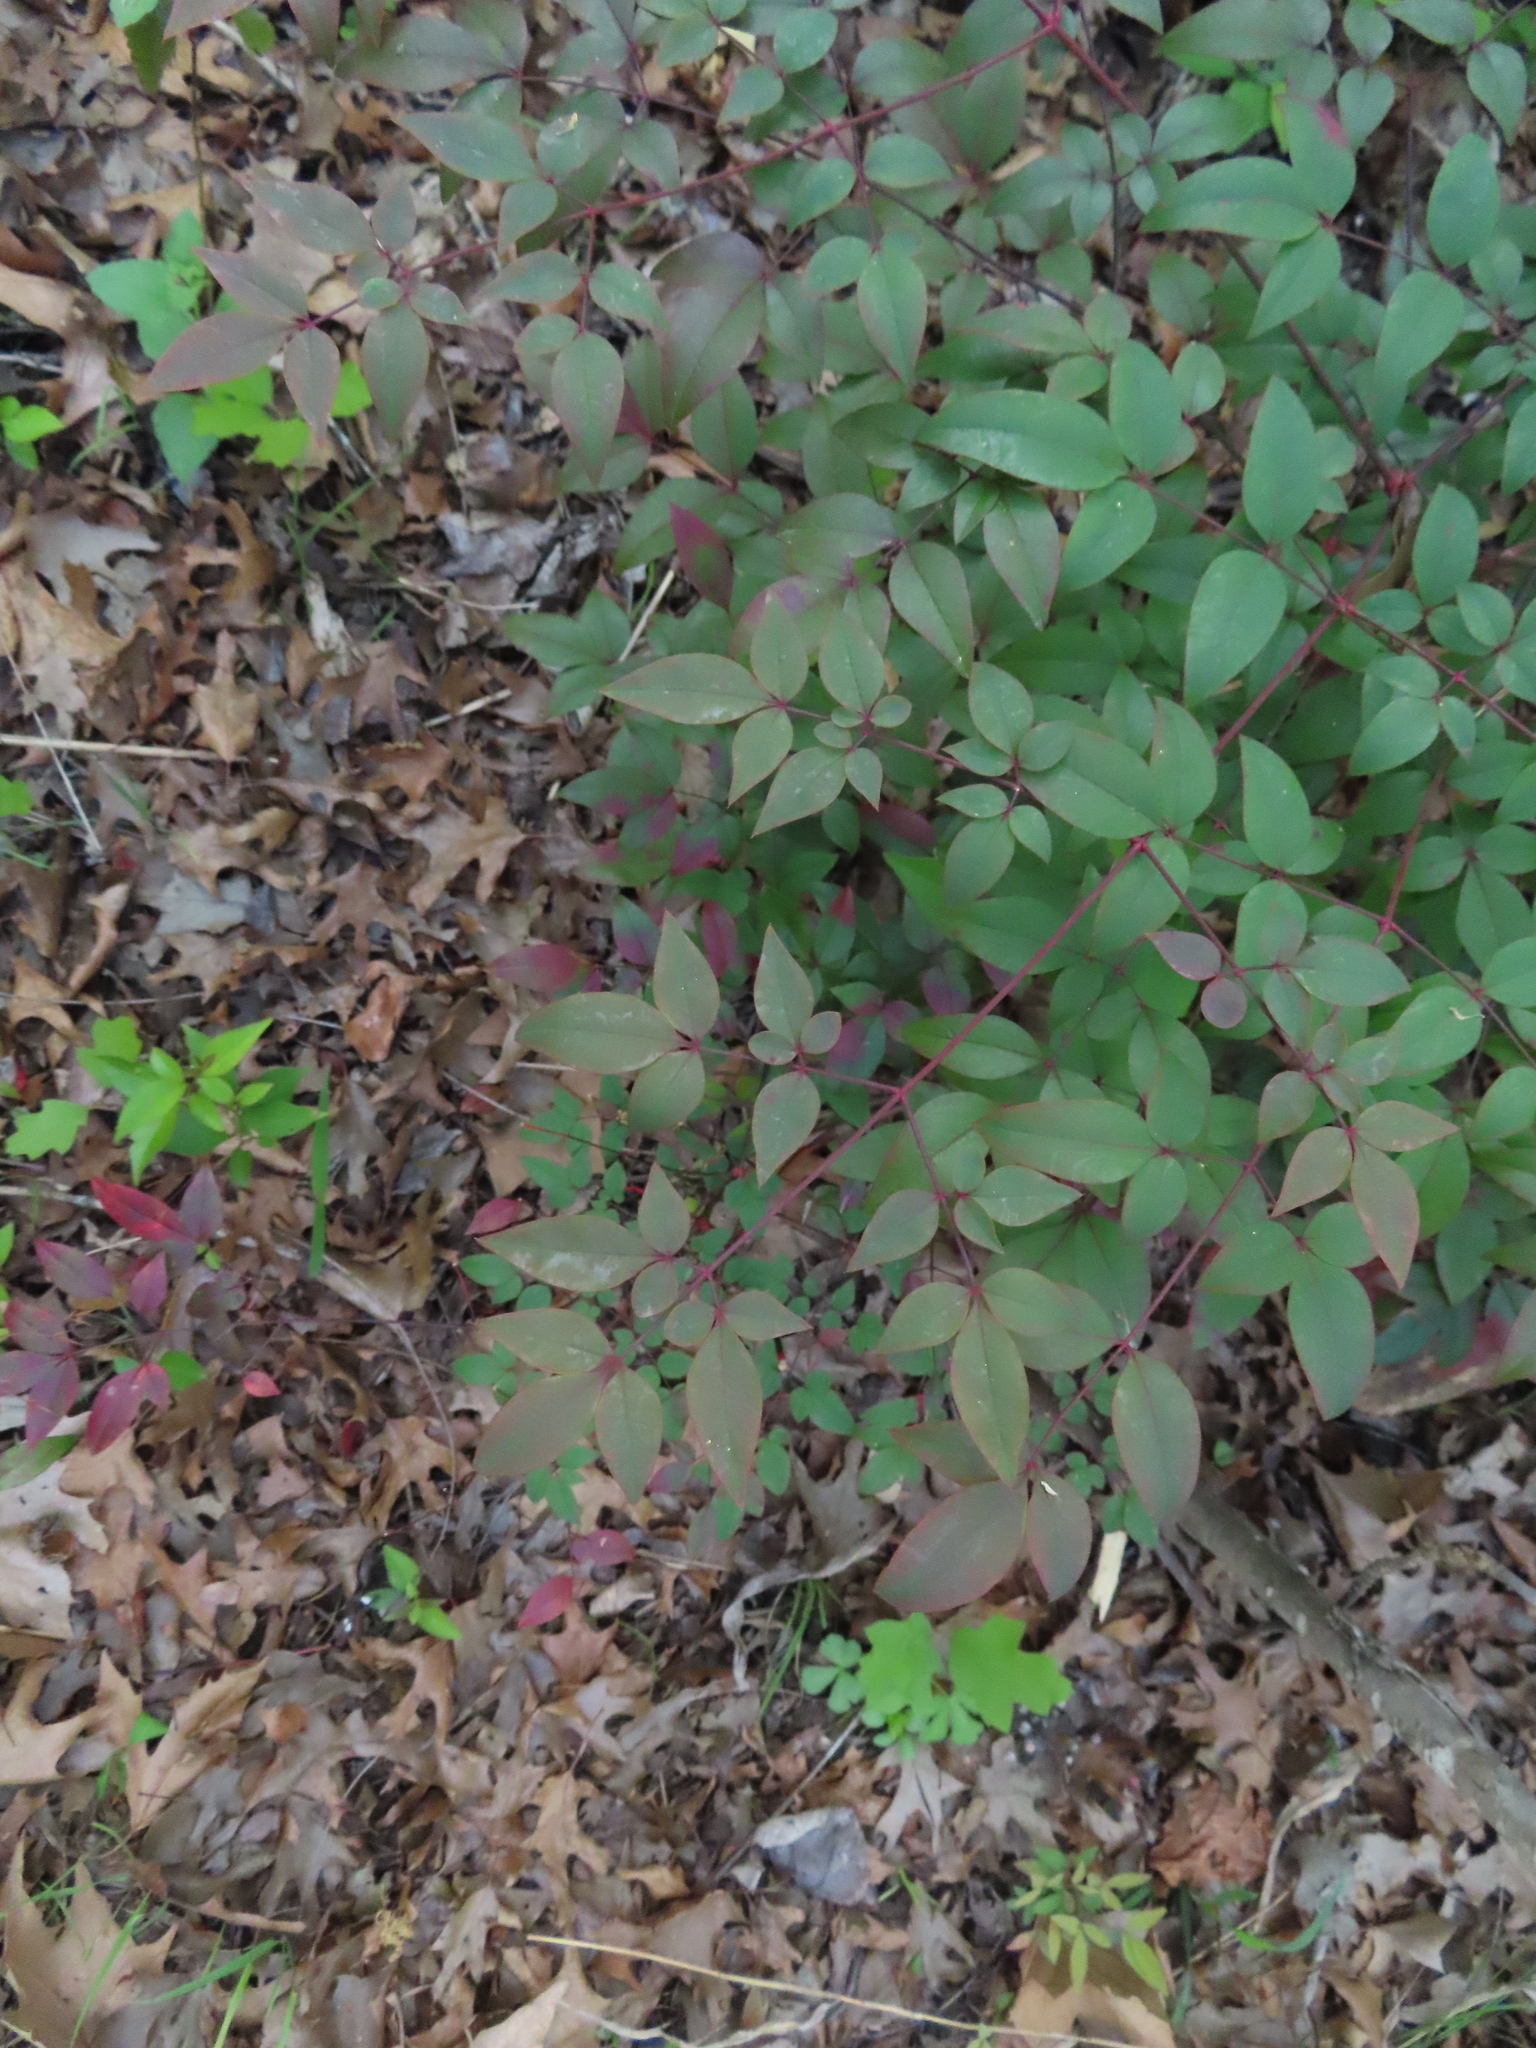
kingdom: Plantae
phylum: Tracheophyta
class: Magnoliopsida
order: Ranunculales
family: Berberidaceae
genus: Nandina
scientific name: Nandina domestica
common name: Sacred bamboo
